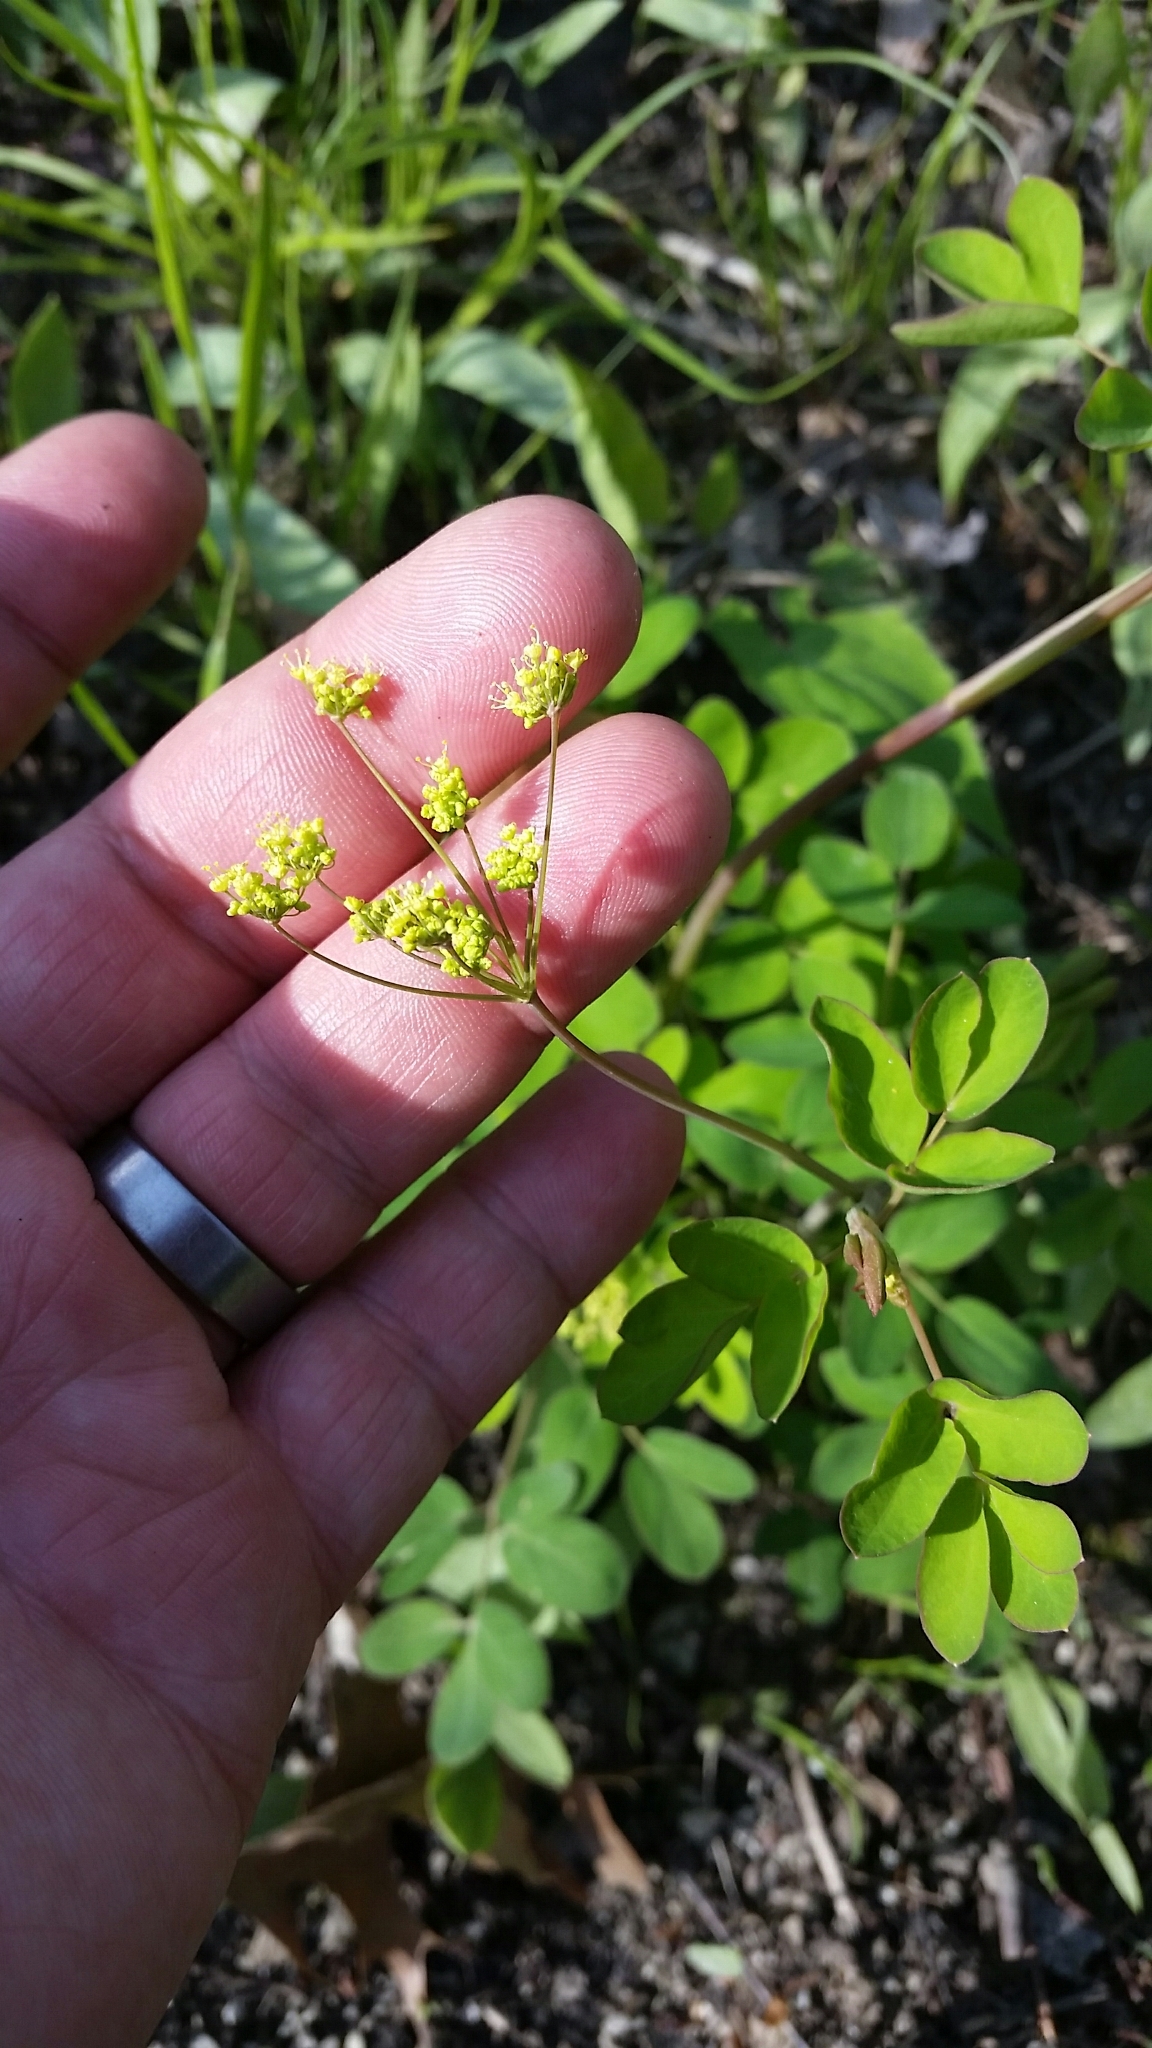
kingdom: Plantae
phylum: Tracheophyta
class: Magnoliopsida
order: Apiales
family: Apiaceae
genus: Taenidia
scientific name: Taenidia integerrima
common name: Golden alexander
